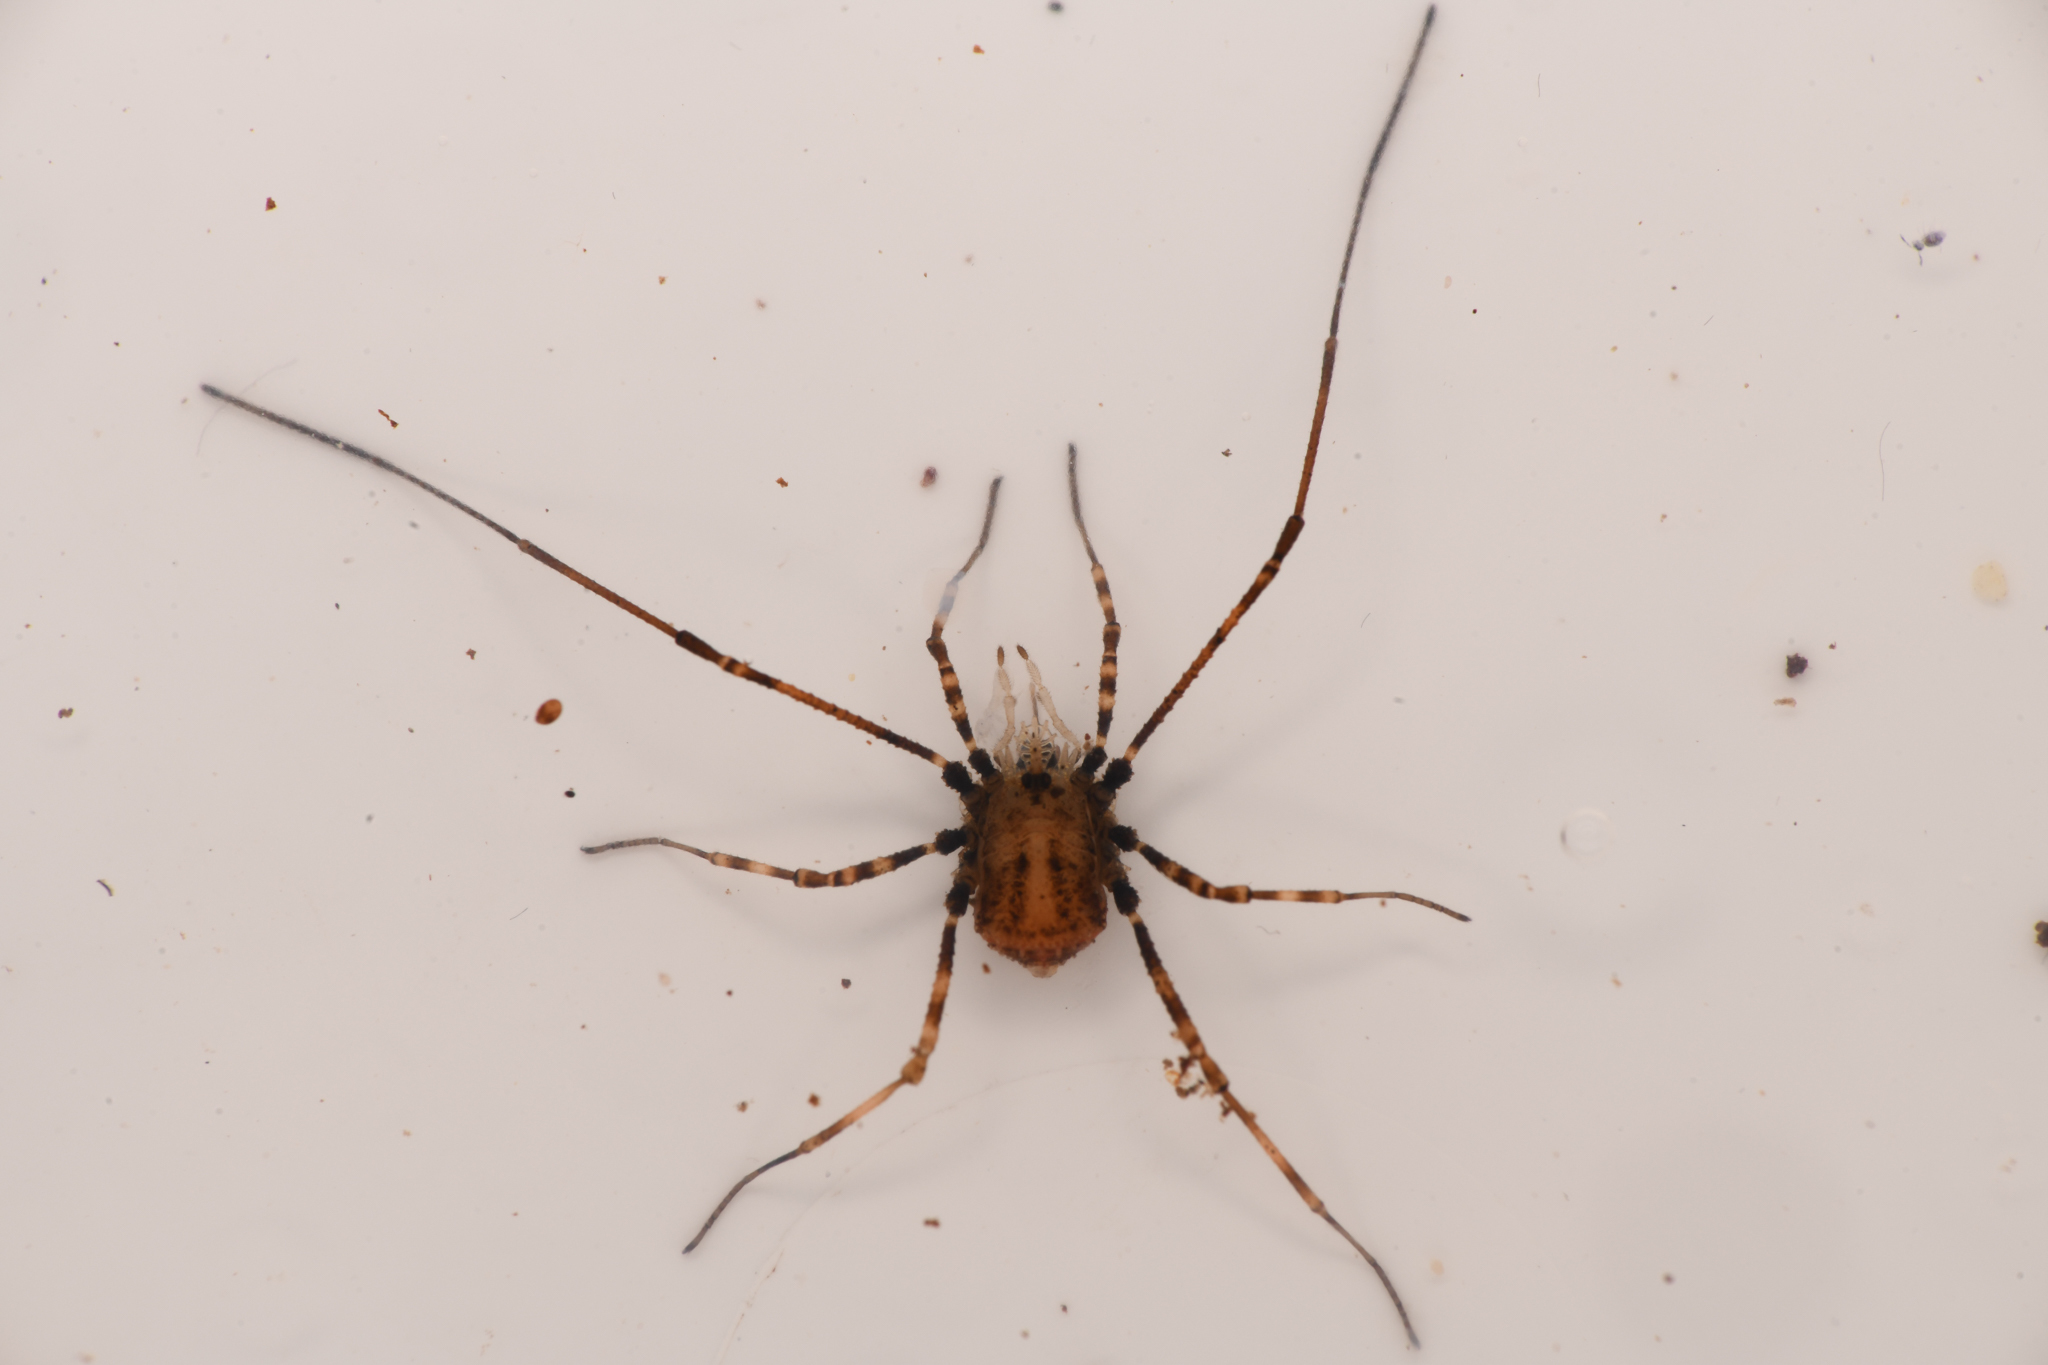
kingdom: Animalia
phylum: Arthropoda
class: Arachnida
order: Opiliones
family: Nemastomatidae
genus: Ortholasma
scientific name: Ortholasma pictipes
